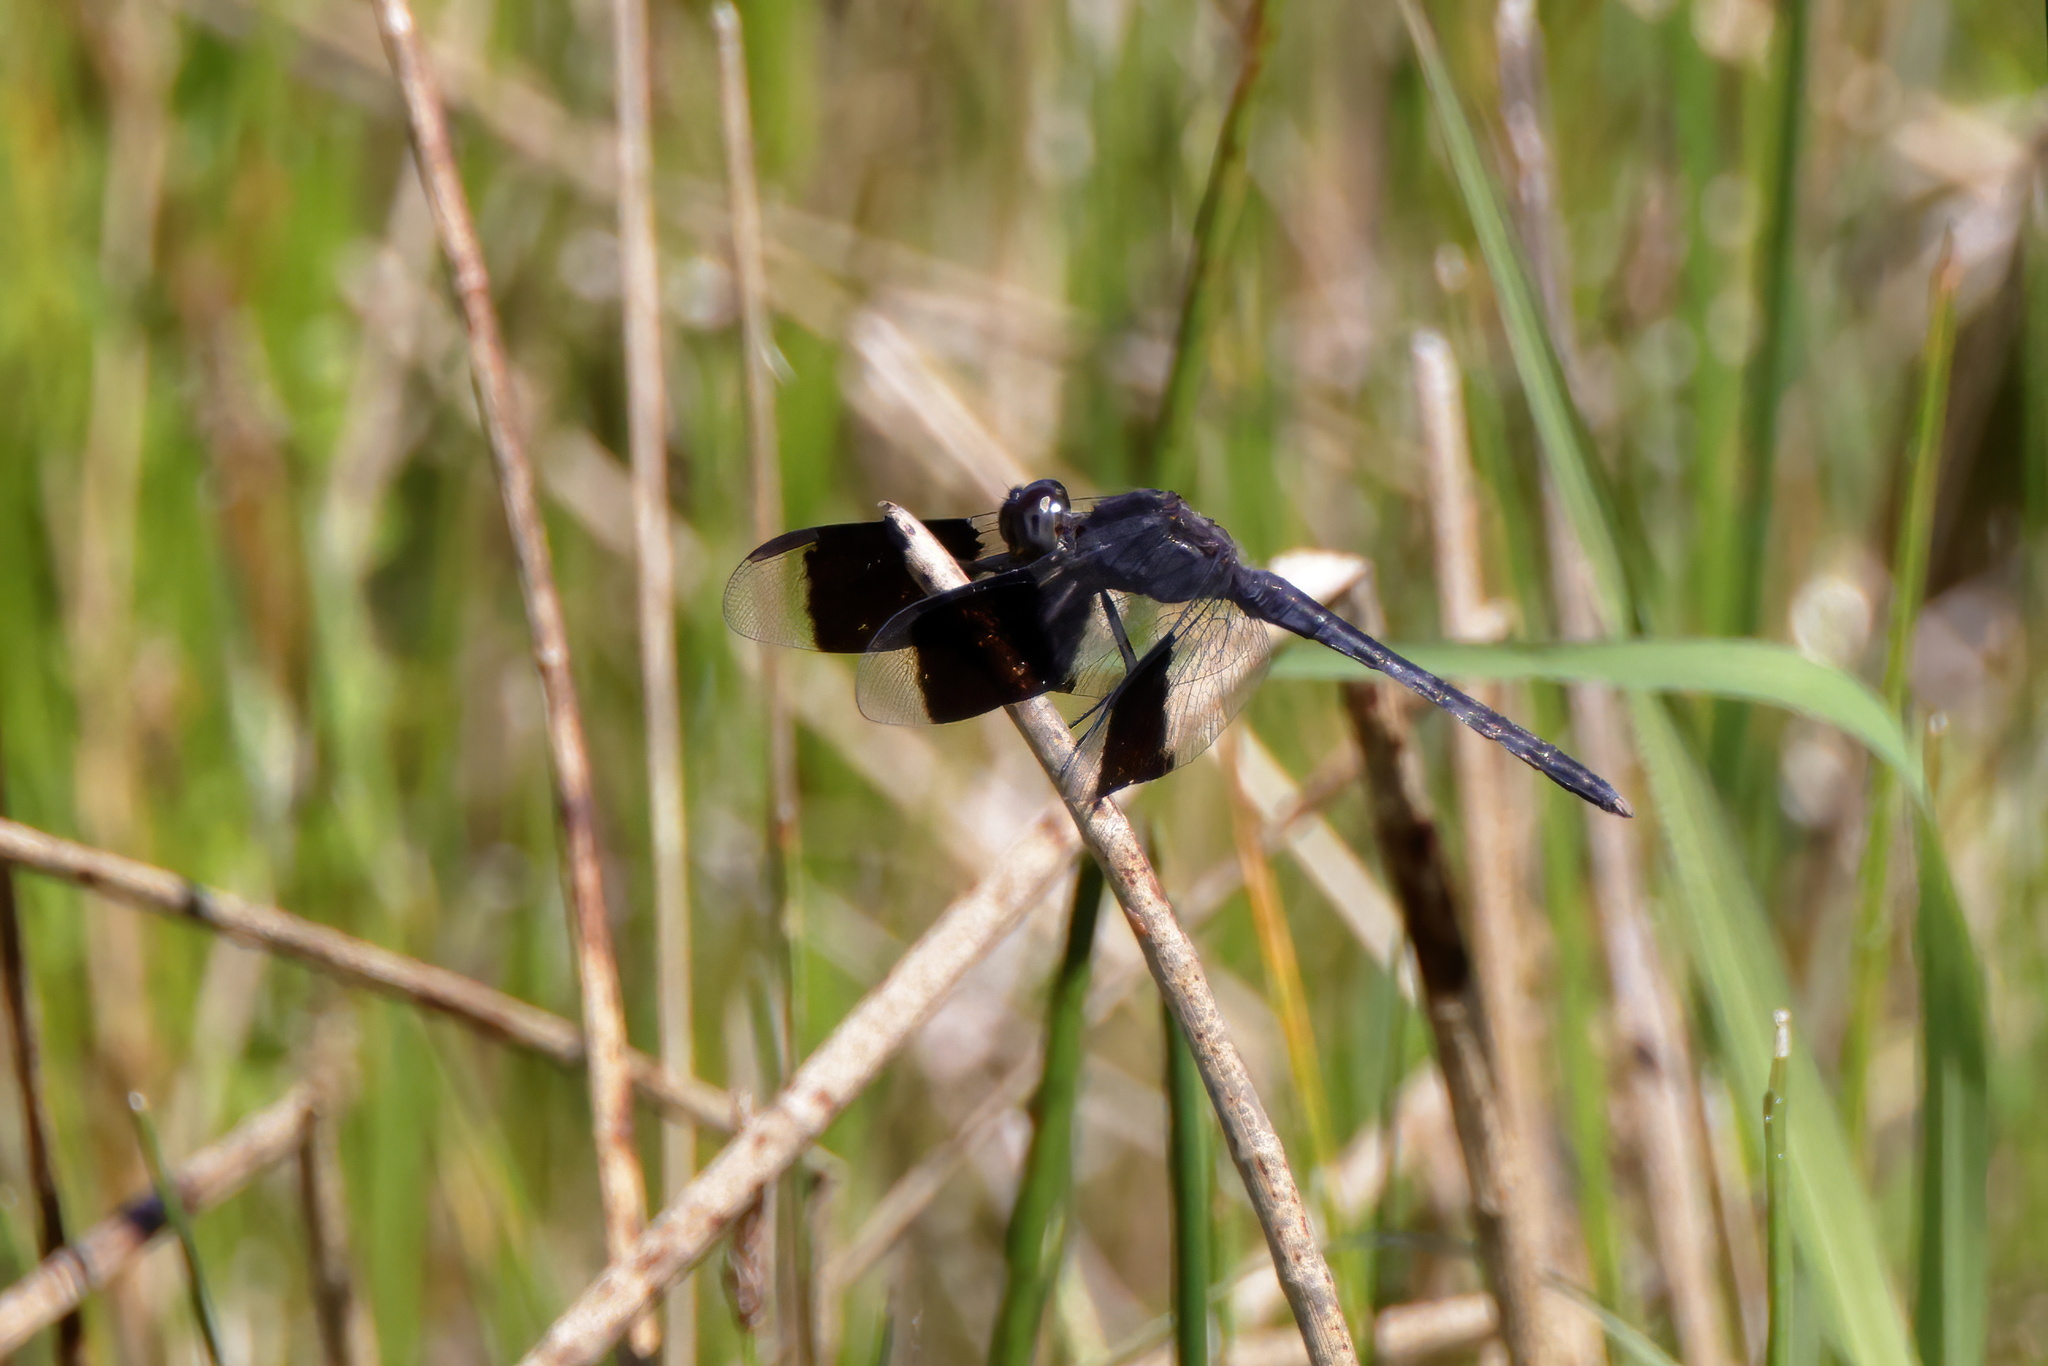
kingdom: Animalia
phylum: Arthropoda
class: Insecta
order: Odonata
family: Libellulidae
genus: Erythrodiplax
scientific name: Erythrodiplax umbrata
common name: Band-winged dragonlet
